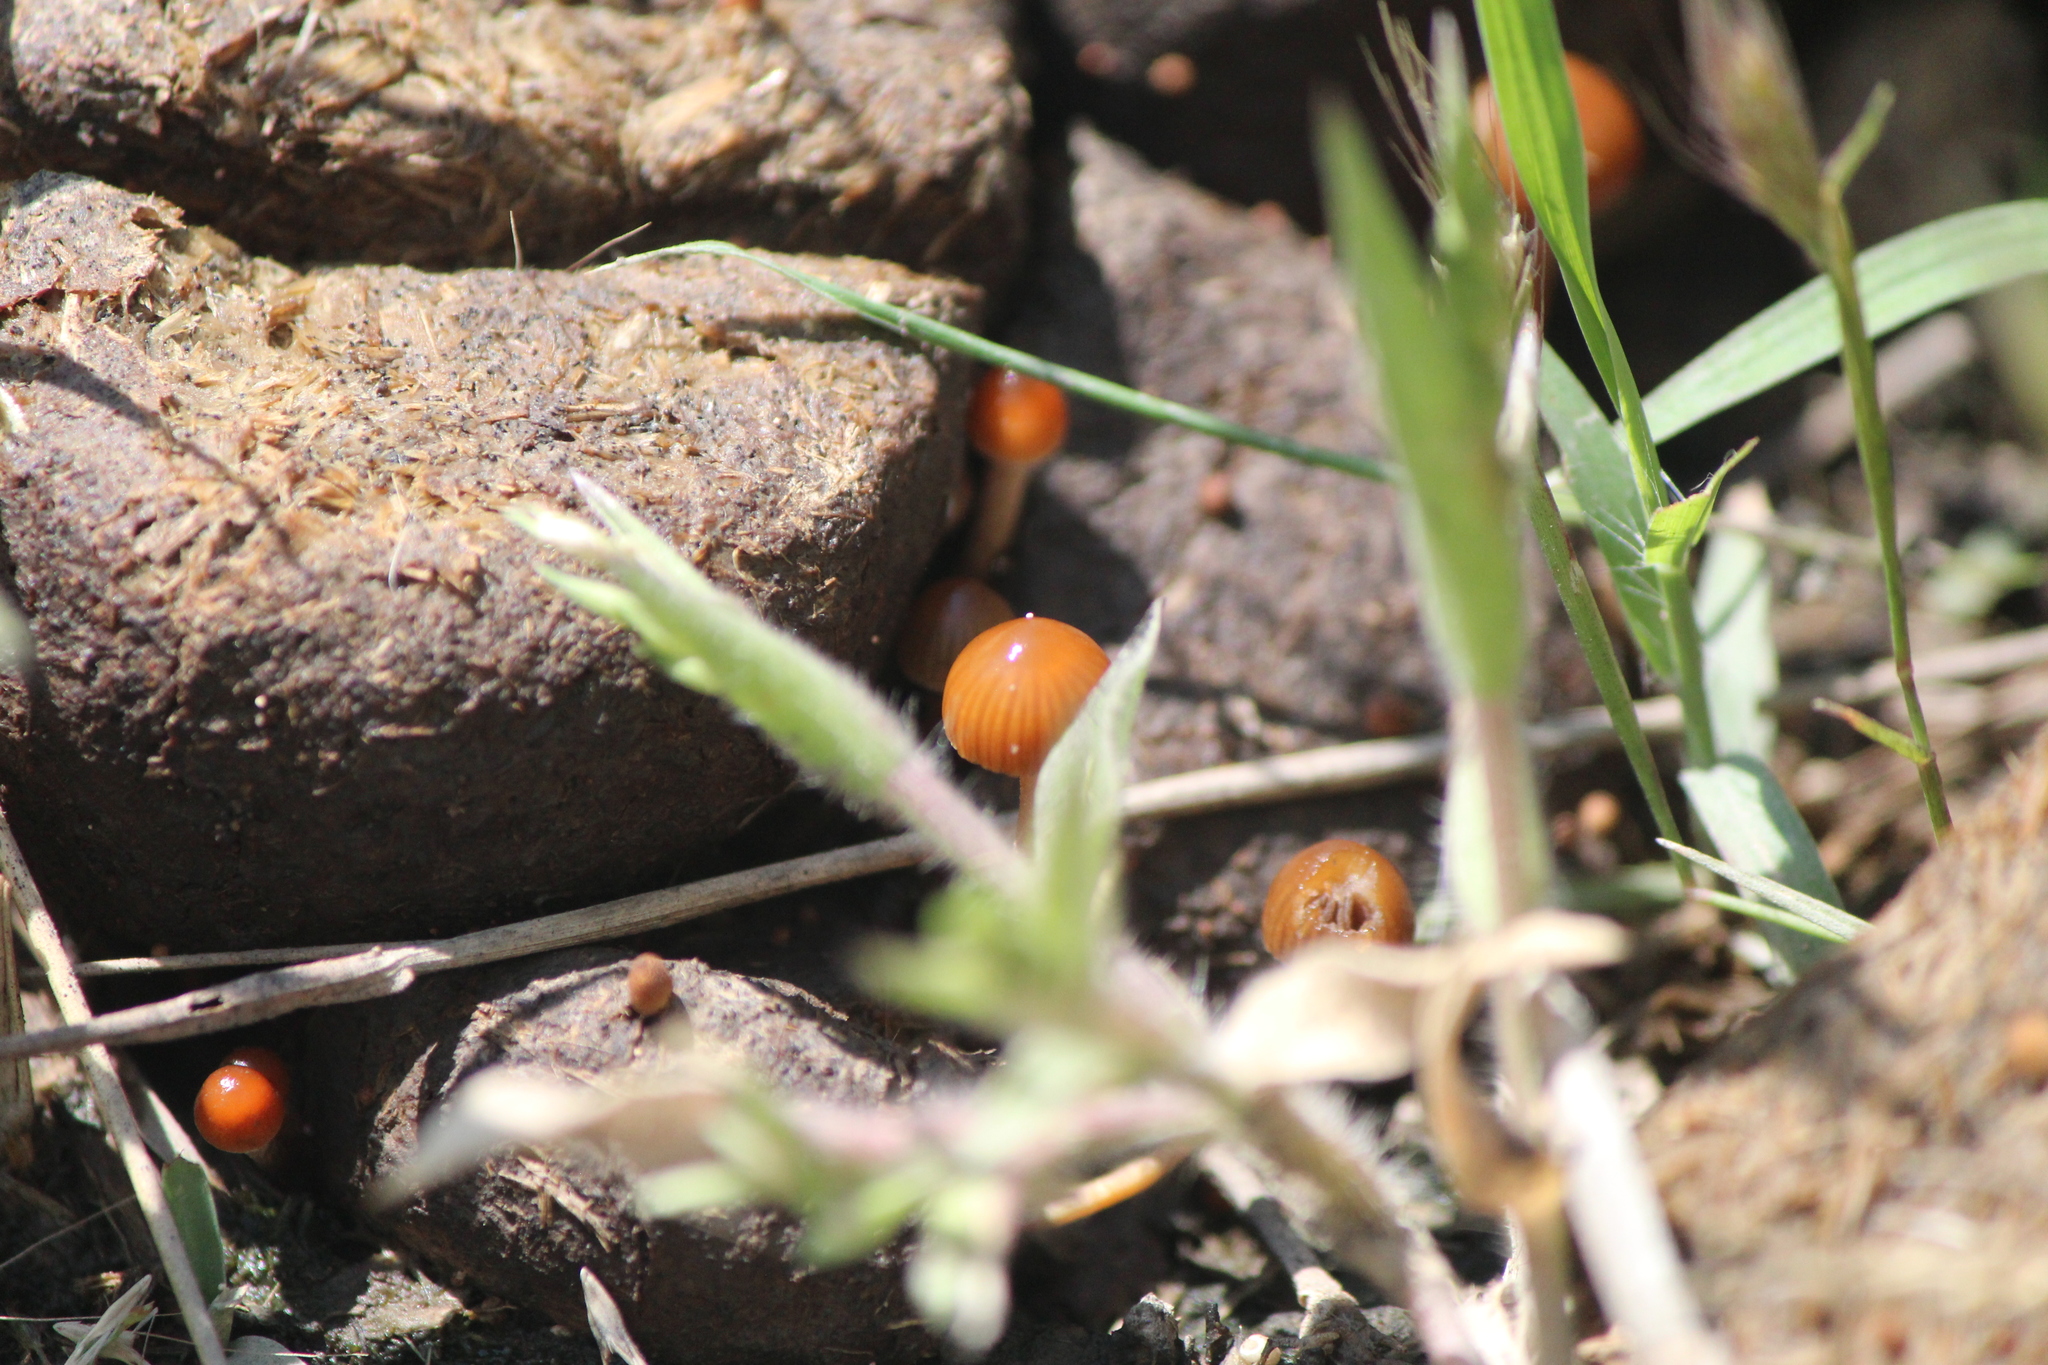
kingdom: Fungi
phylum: Basidiomycota
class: Agaricomycetes
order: Agaricales
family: Strophariaceae
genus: Deconica
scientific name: Deconica coprophila
